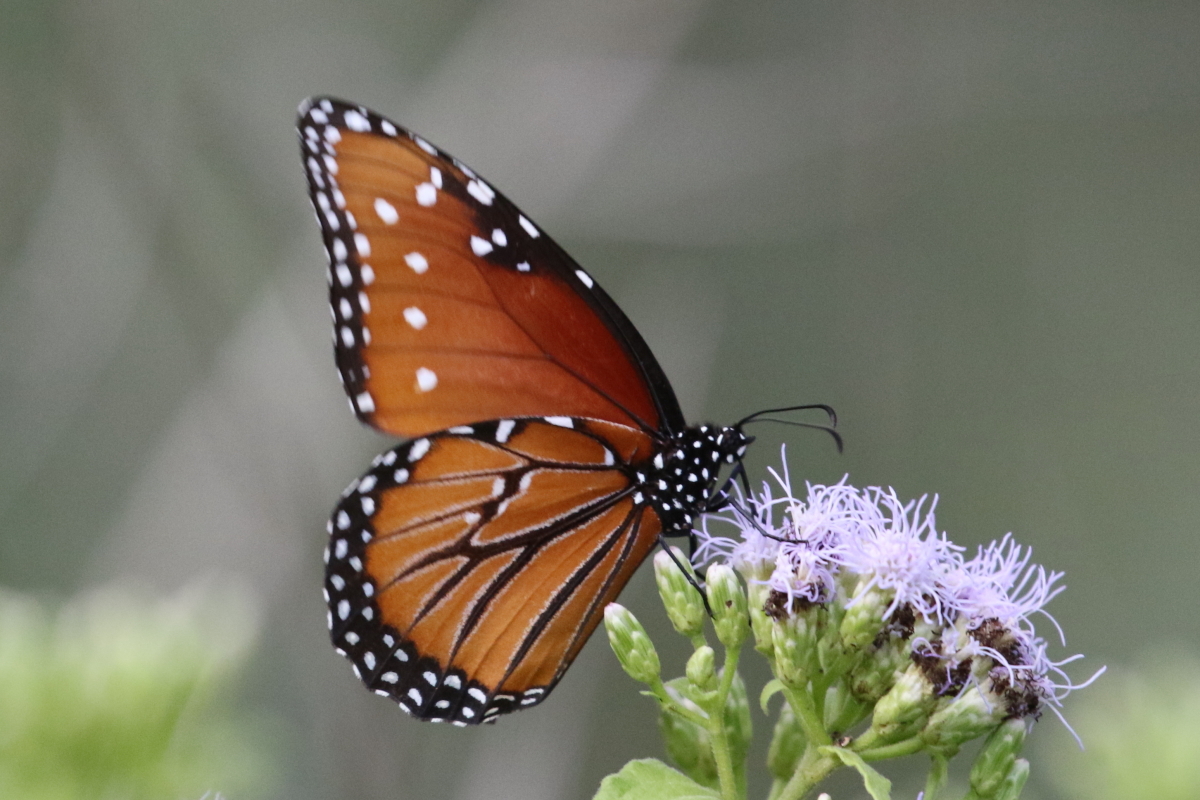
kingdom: Animalia
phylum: Arthropoda
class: Insecta
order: Lepidoptera
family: Nymphalidae
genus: Danaus
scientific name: Danaus gilippus
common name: Queen
